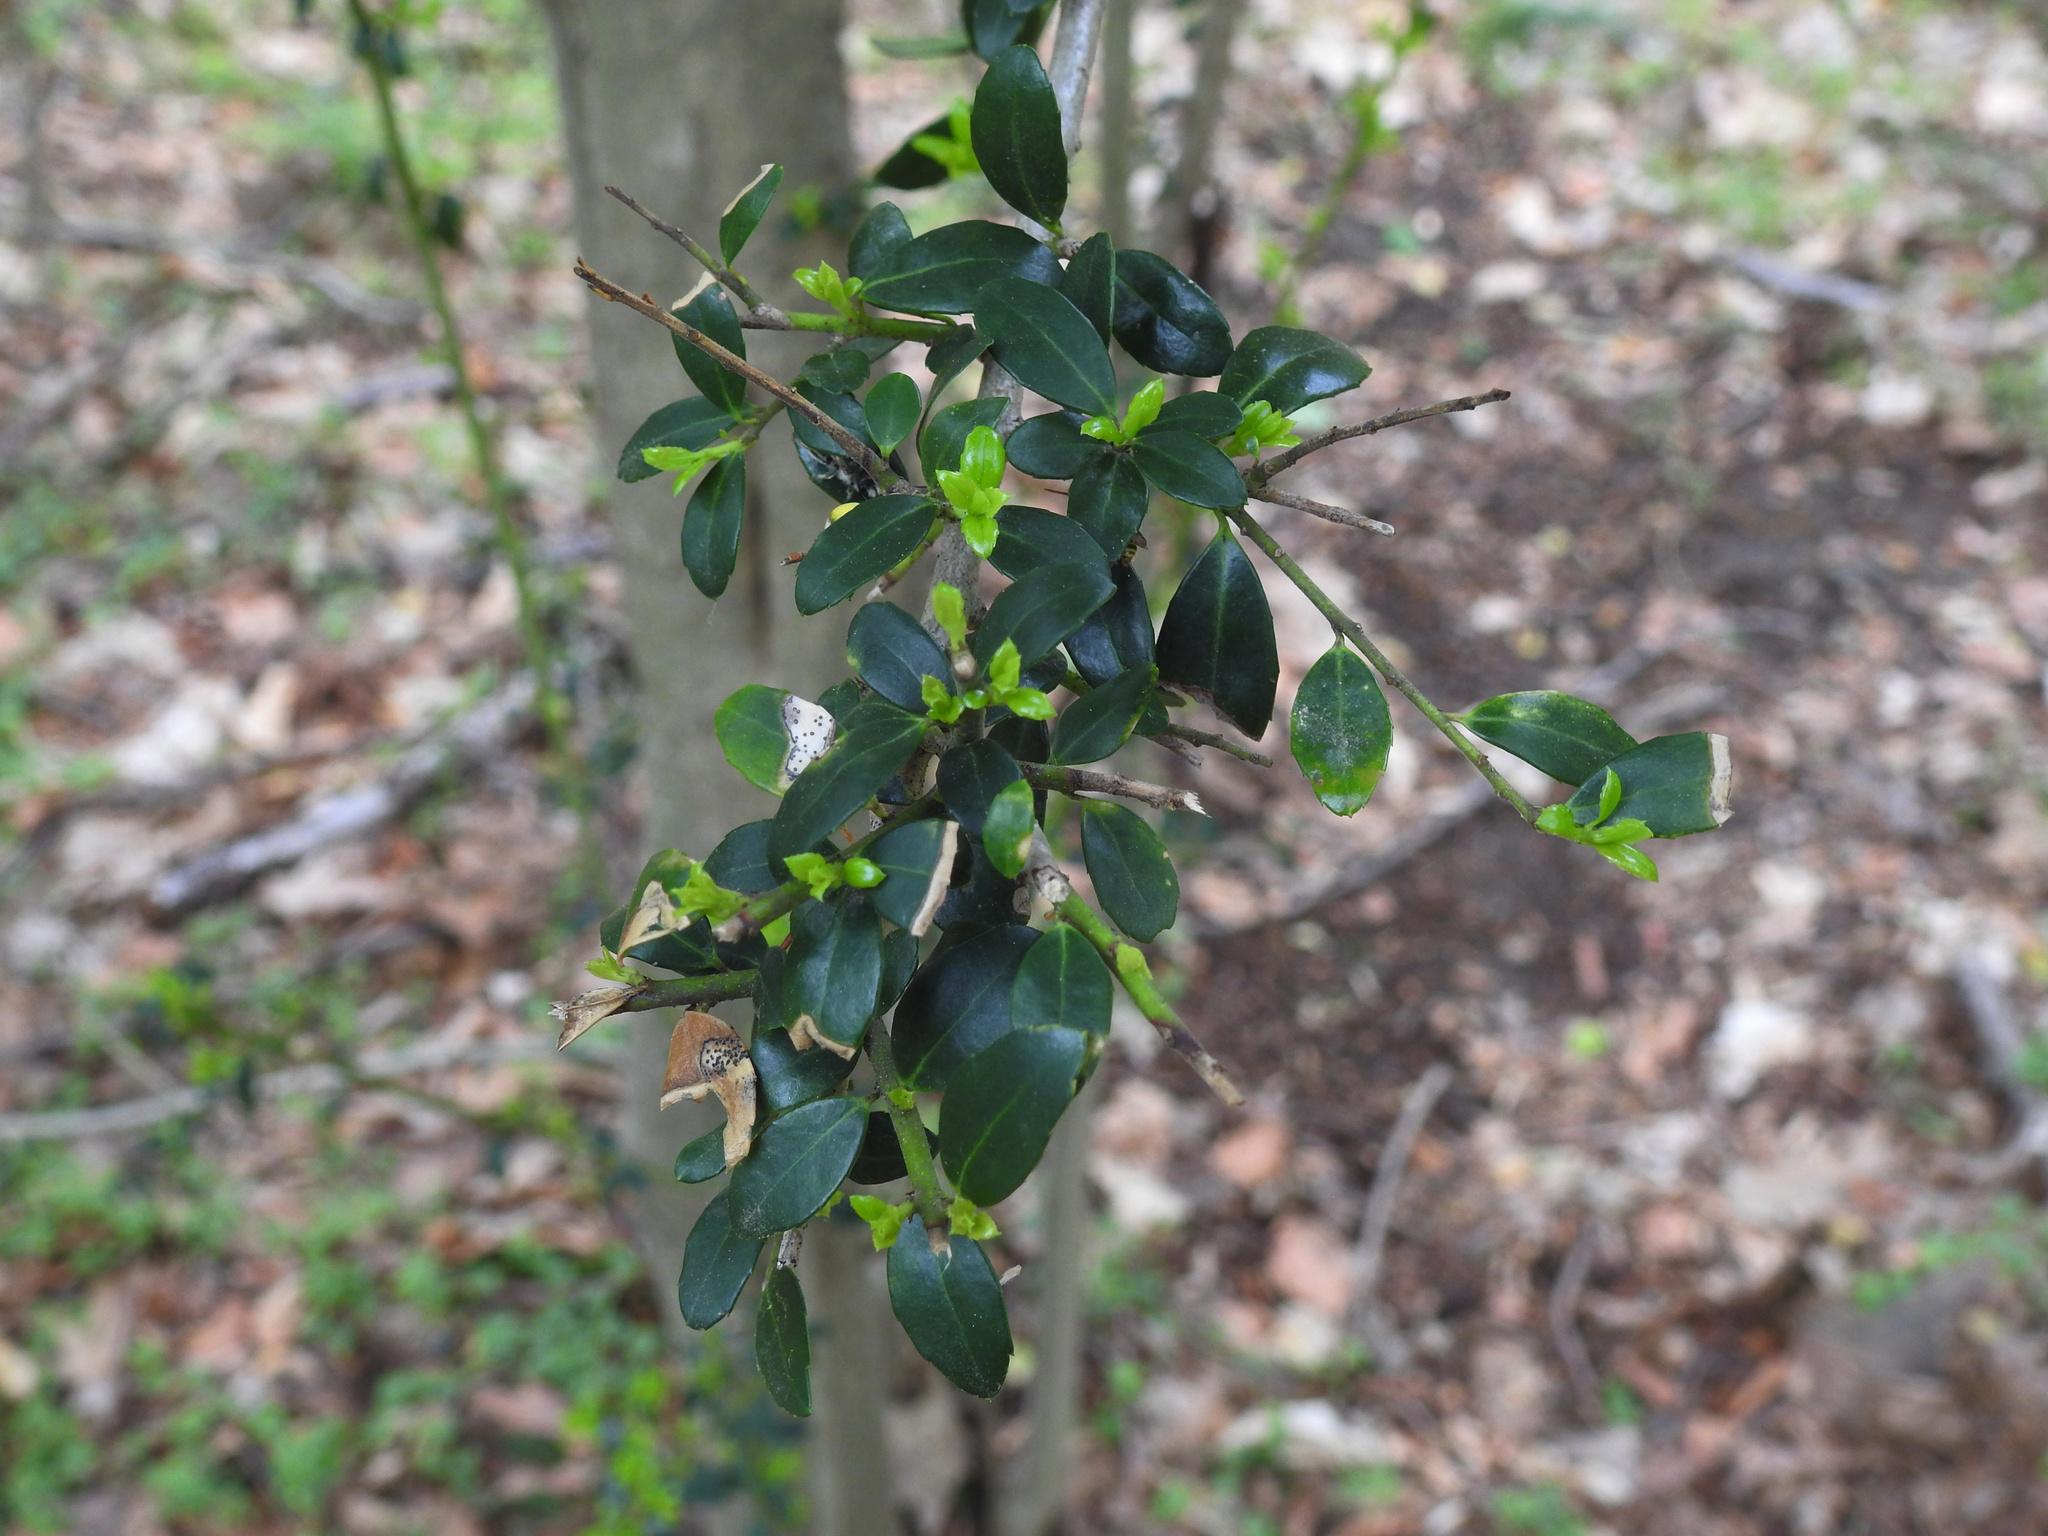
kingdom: Plantae
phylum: Tracheophyta
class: Magnoliopsida
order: Aquifoliales
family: Aquifoliaceae
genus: Ilex
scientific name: Ilex crenata
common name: Japanese holly
